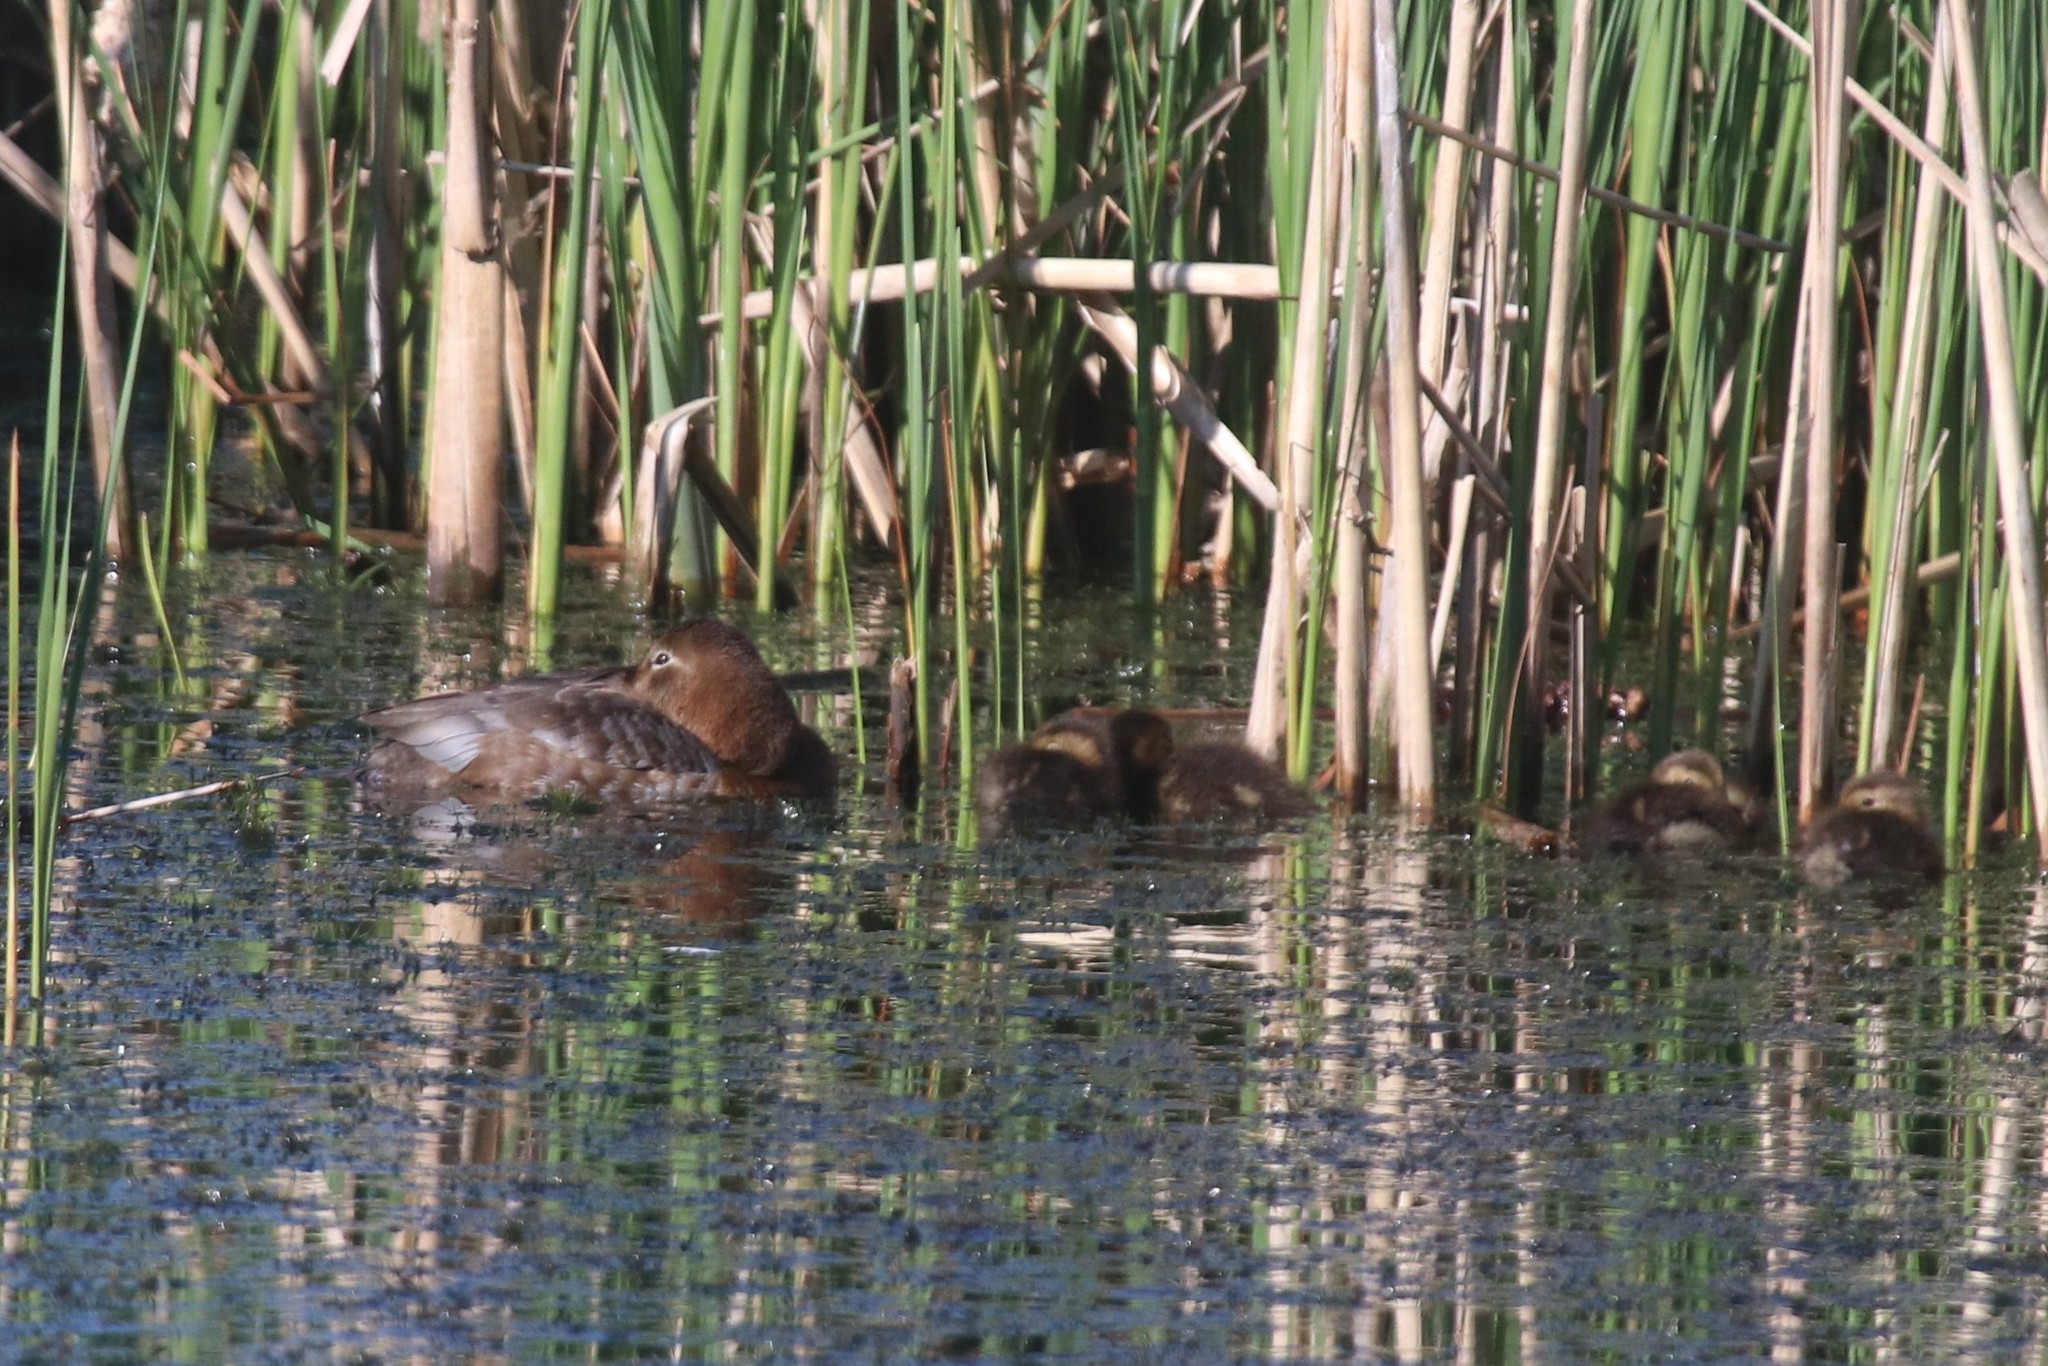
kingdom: Animalia
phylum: Chordata
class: Aves
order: Anseriformes
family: Anatidae
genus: Aythya
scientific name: Aythya ferina
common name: Common pochard
